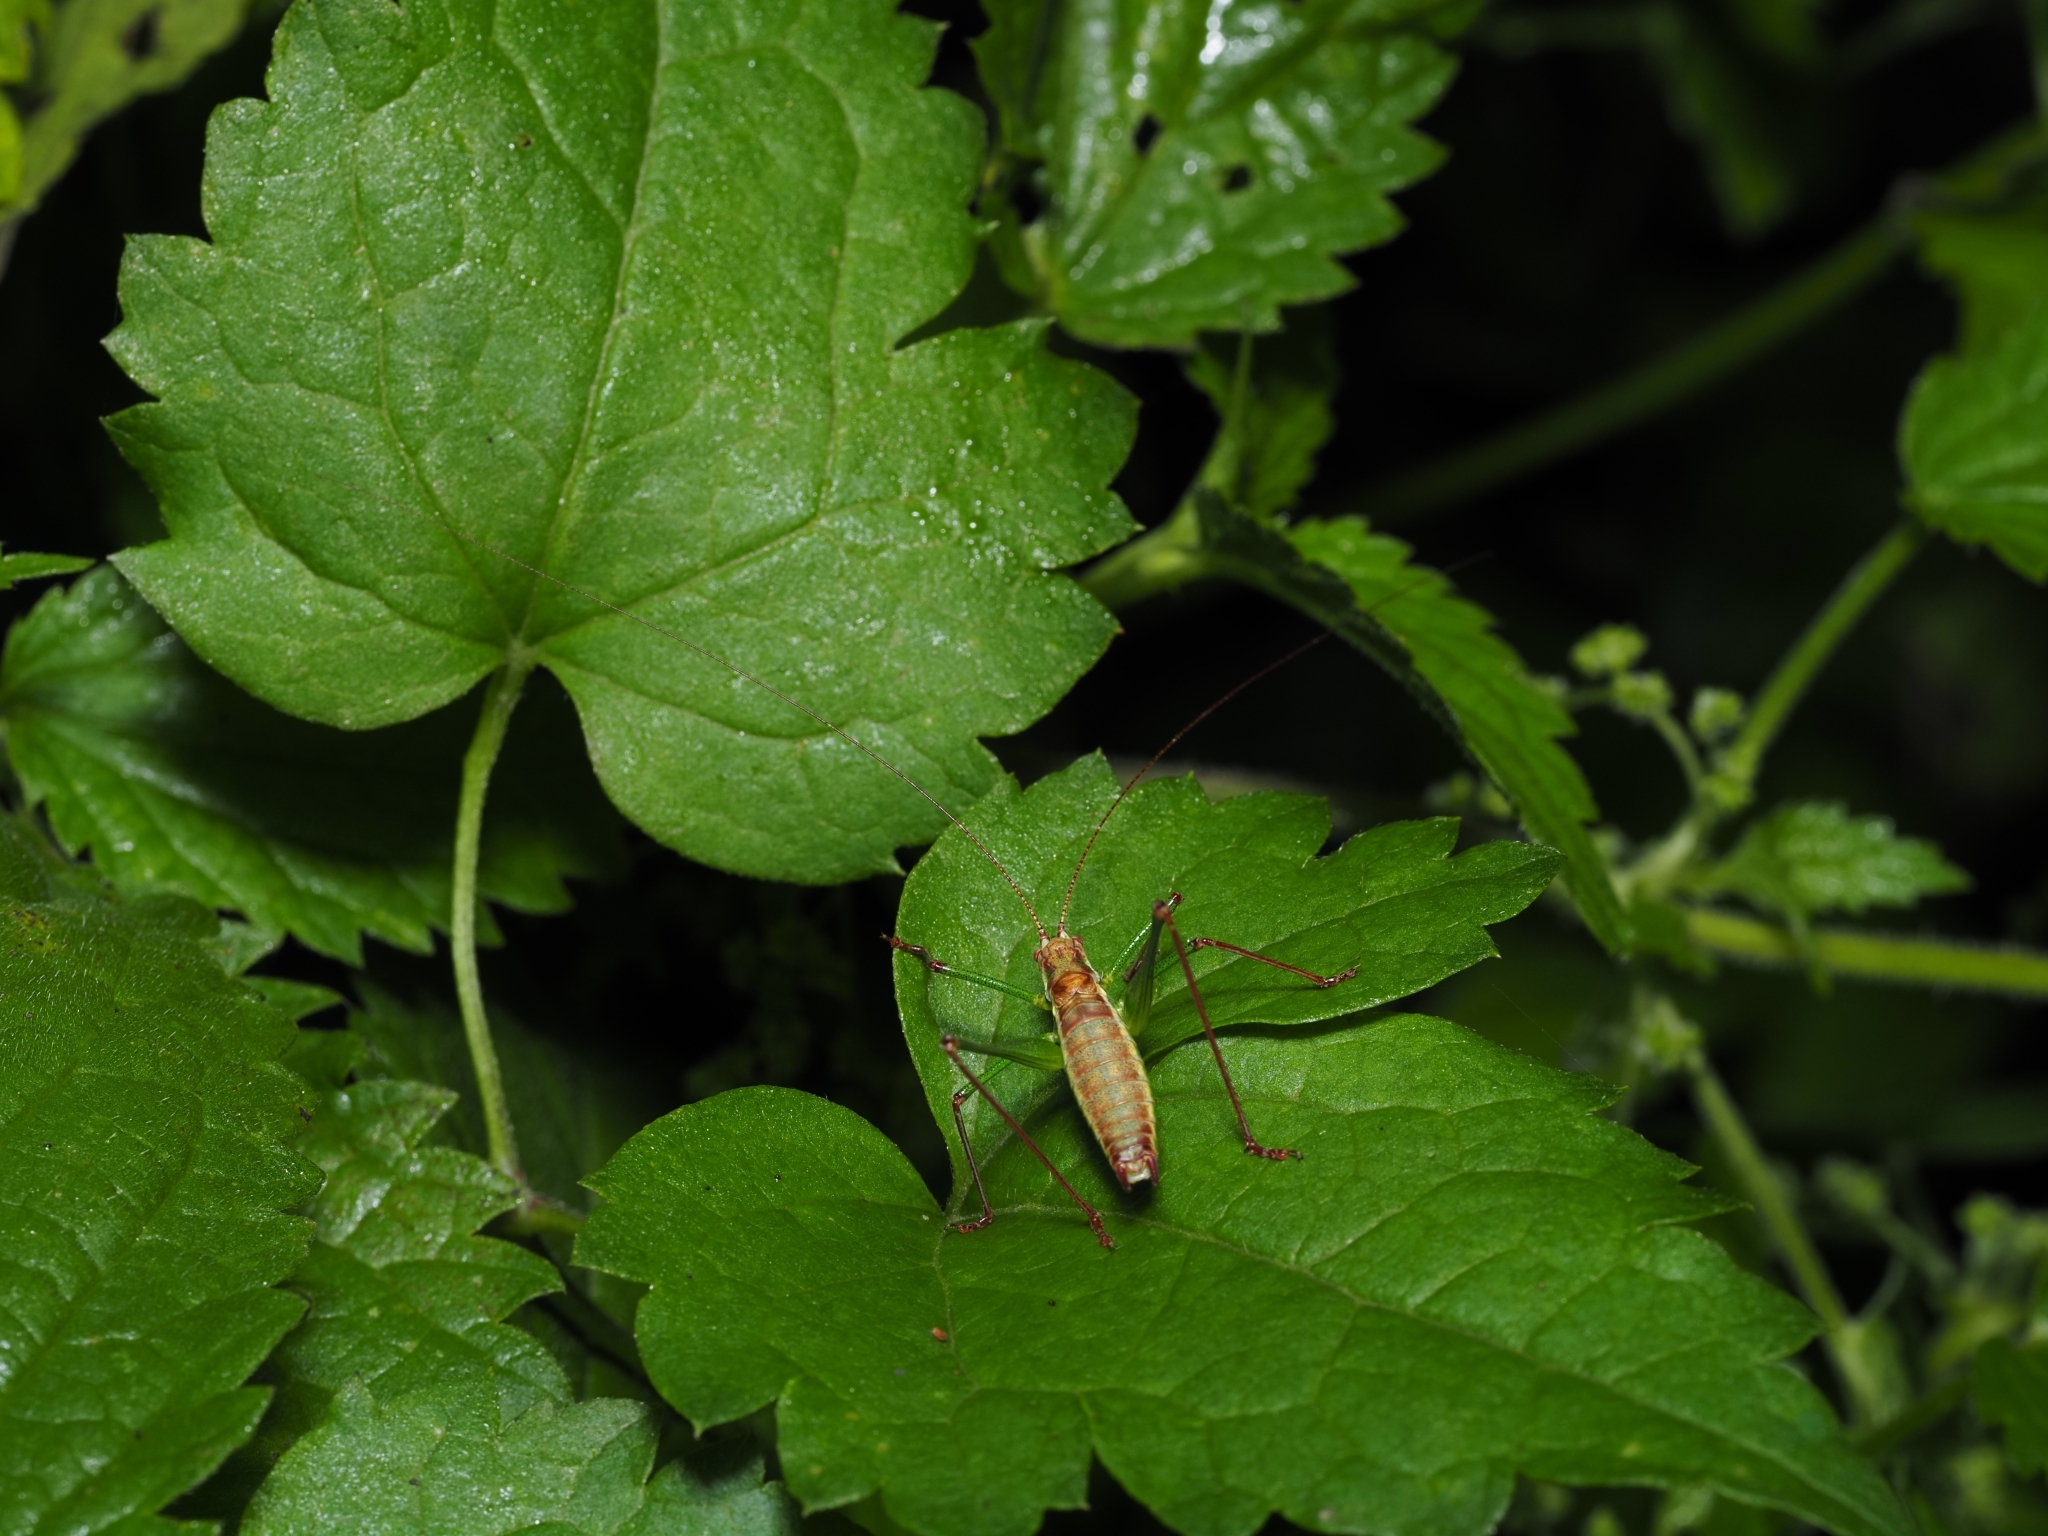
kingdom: Animalia
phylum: Arthropoda
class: Insecta
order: Orthoptera
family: Tettigoniidae
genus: Leptophyes
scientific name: Leptophyes albovittata
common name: Striped bush-cricket
